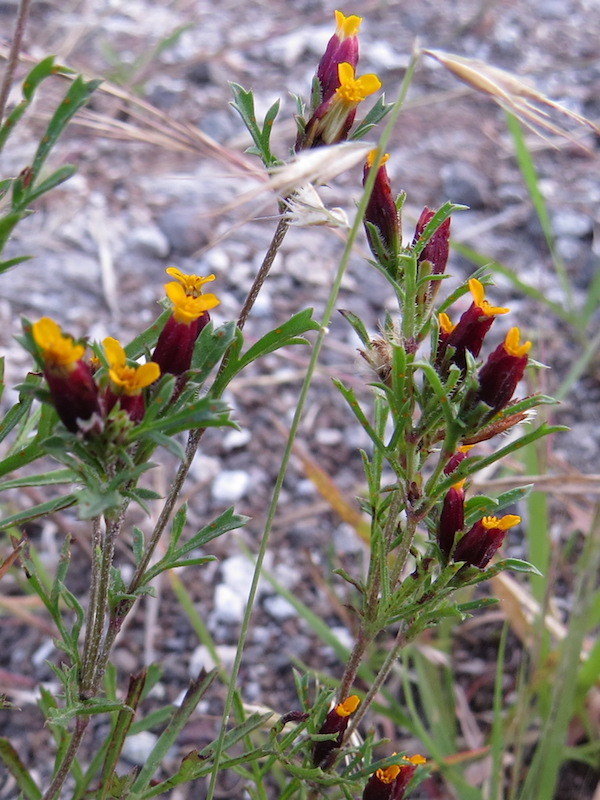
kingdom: Plantae
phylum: Tracheophyta
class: Magnoliopsida
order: Asterales
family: Asteraceae
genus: Dyssodia
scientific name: Dyssodia papposa
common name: Dogweed
